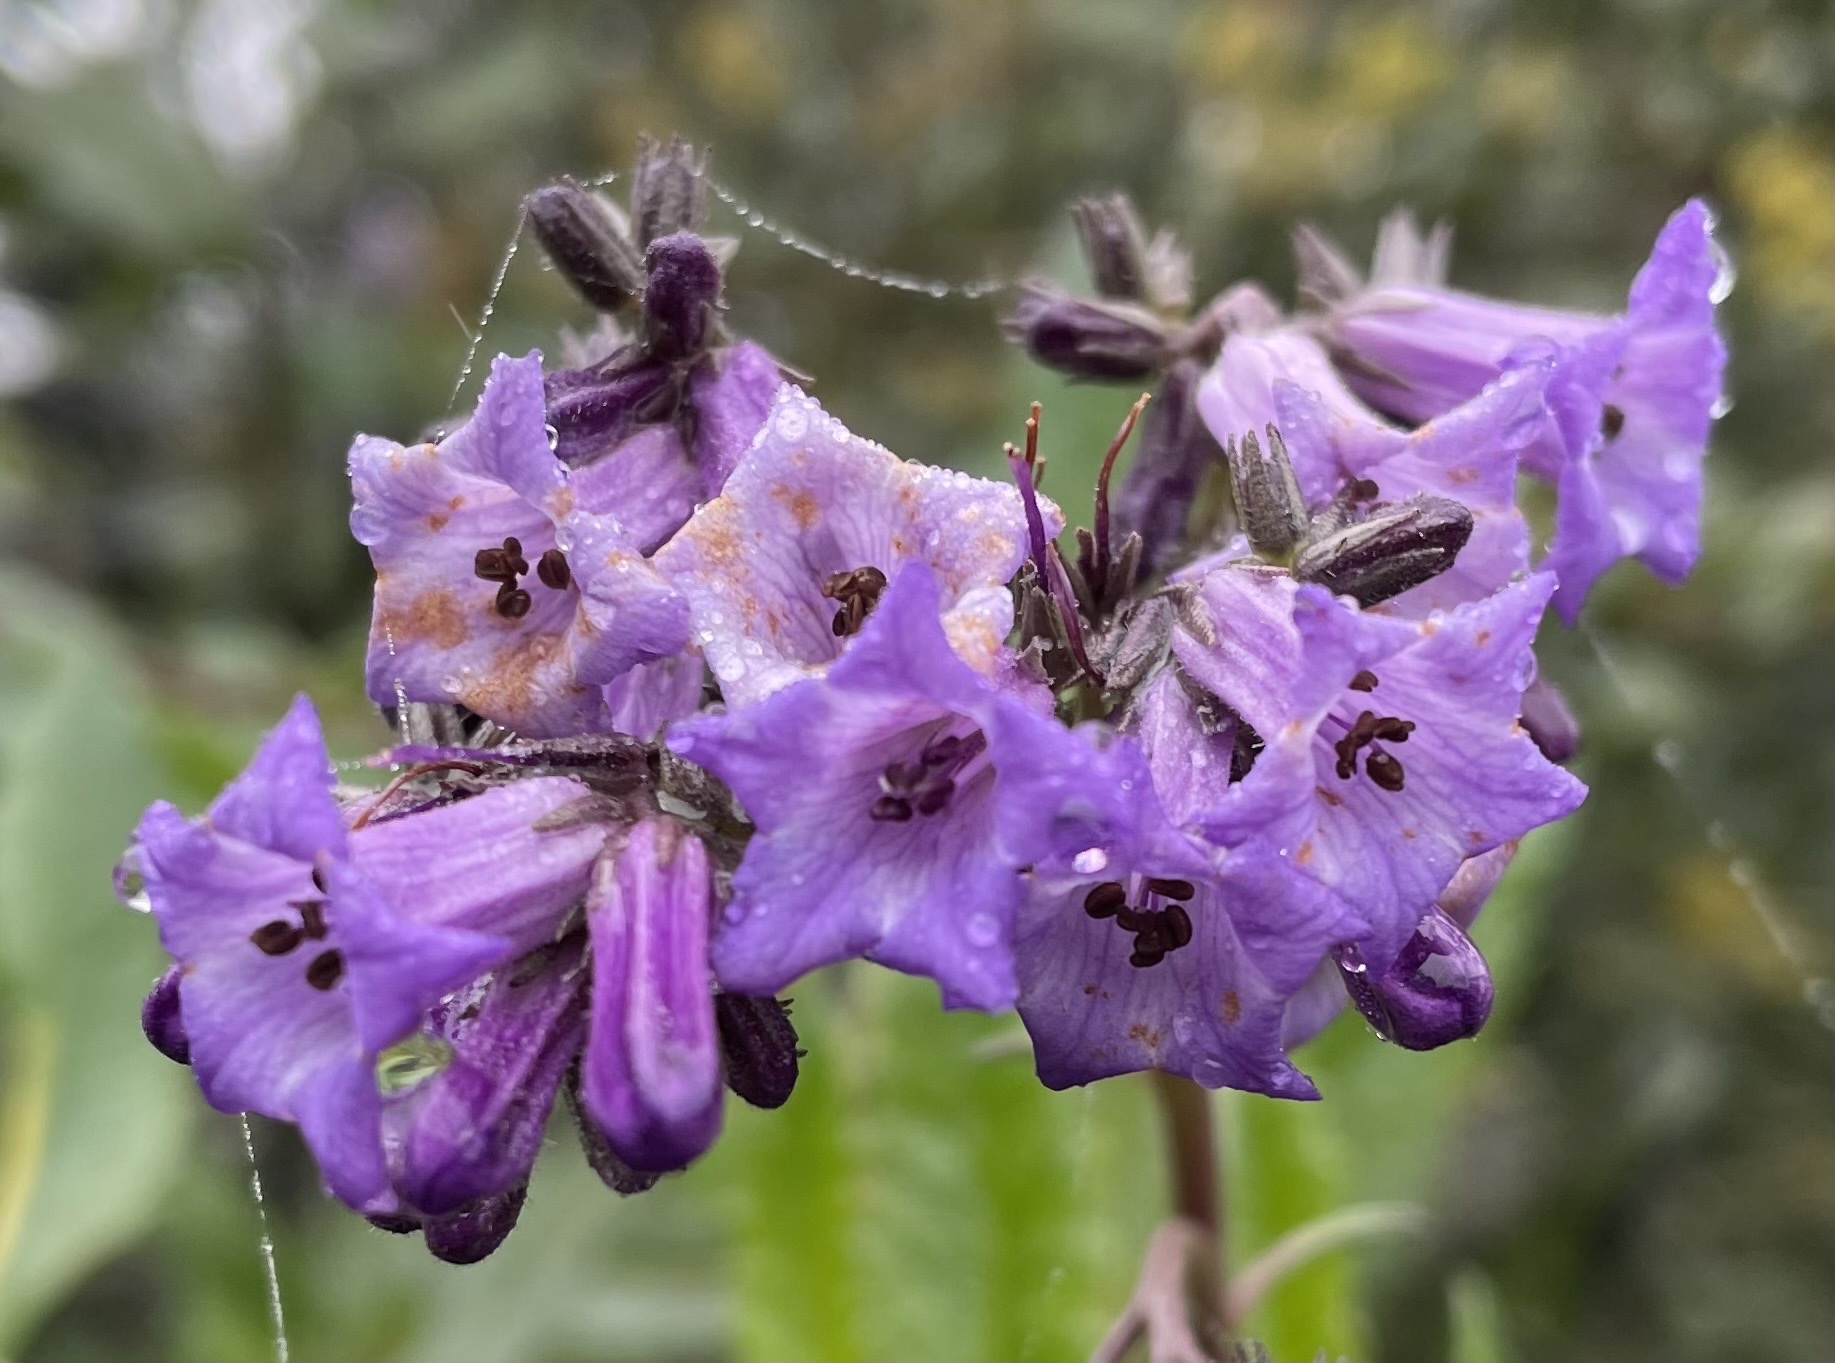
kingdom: Plantae
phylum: Tracheophyta
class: Magnoliopsida
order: Boraginales
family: Namaceae
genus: Eriodictyon
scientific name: Eriodictyon californicum
